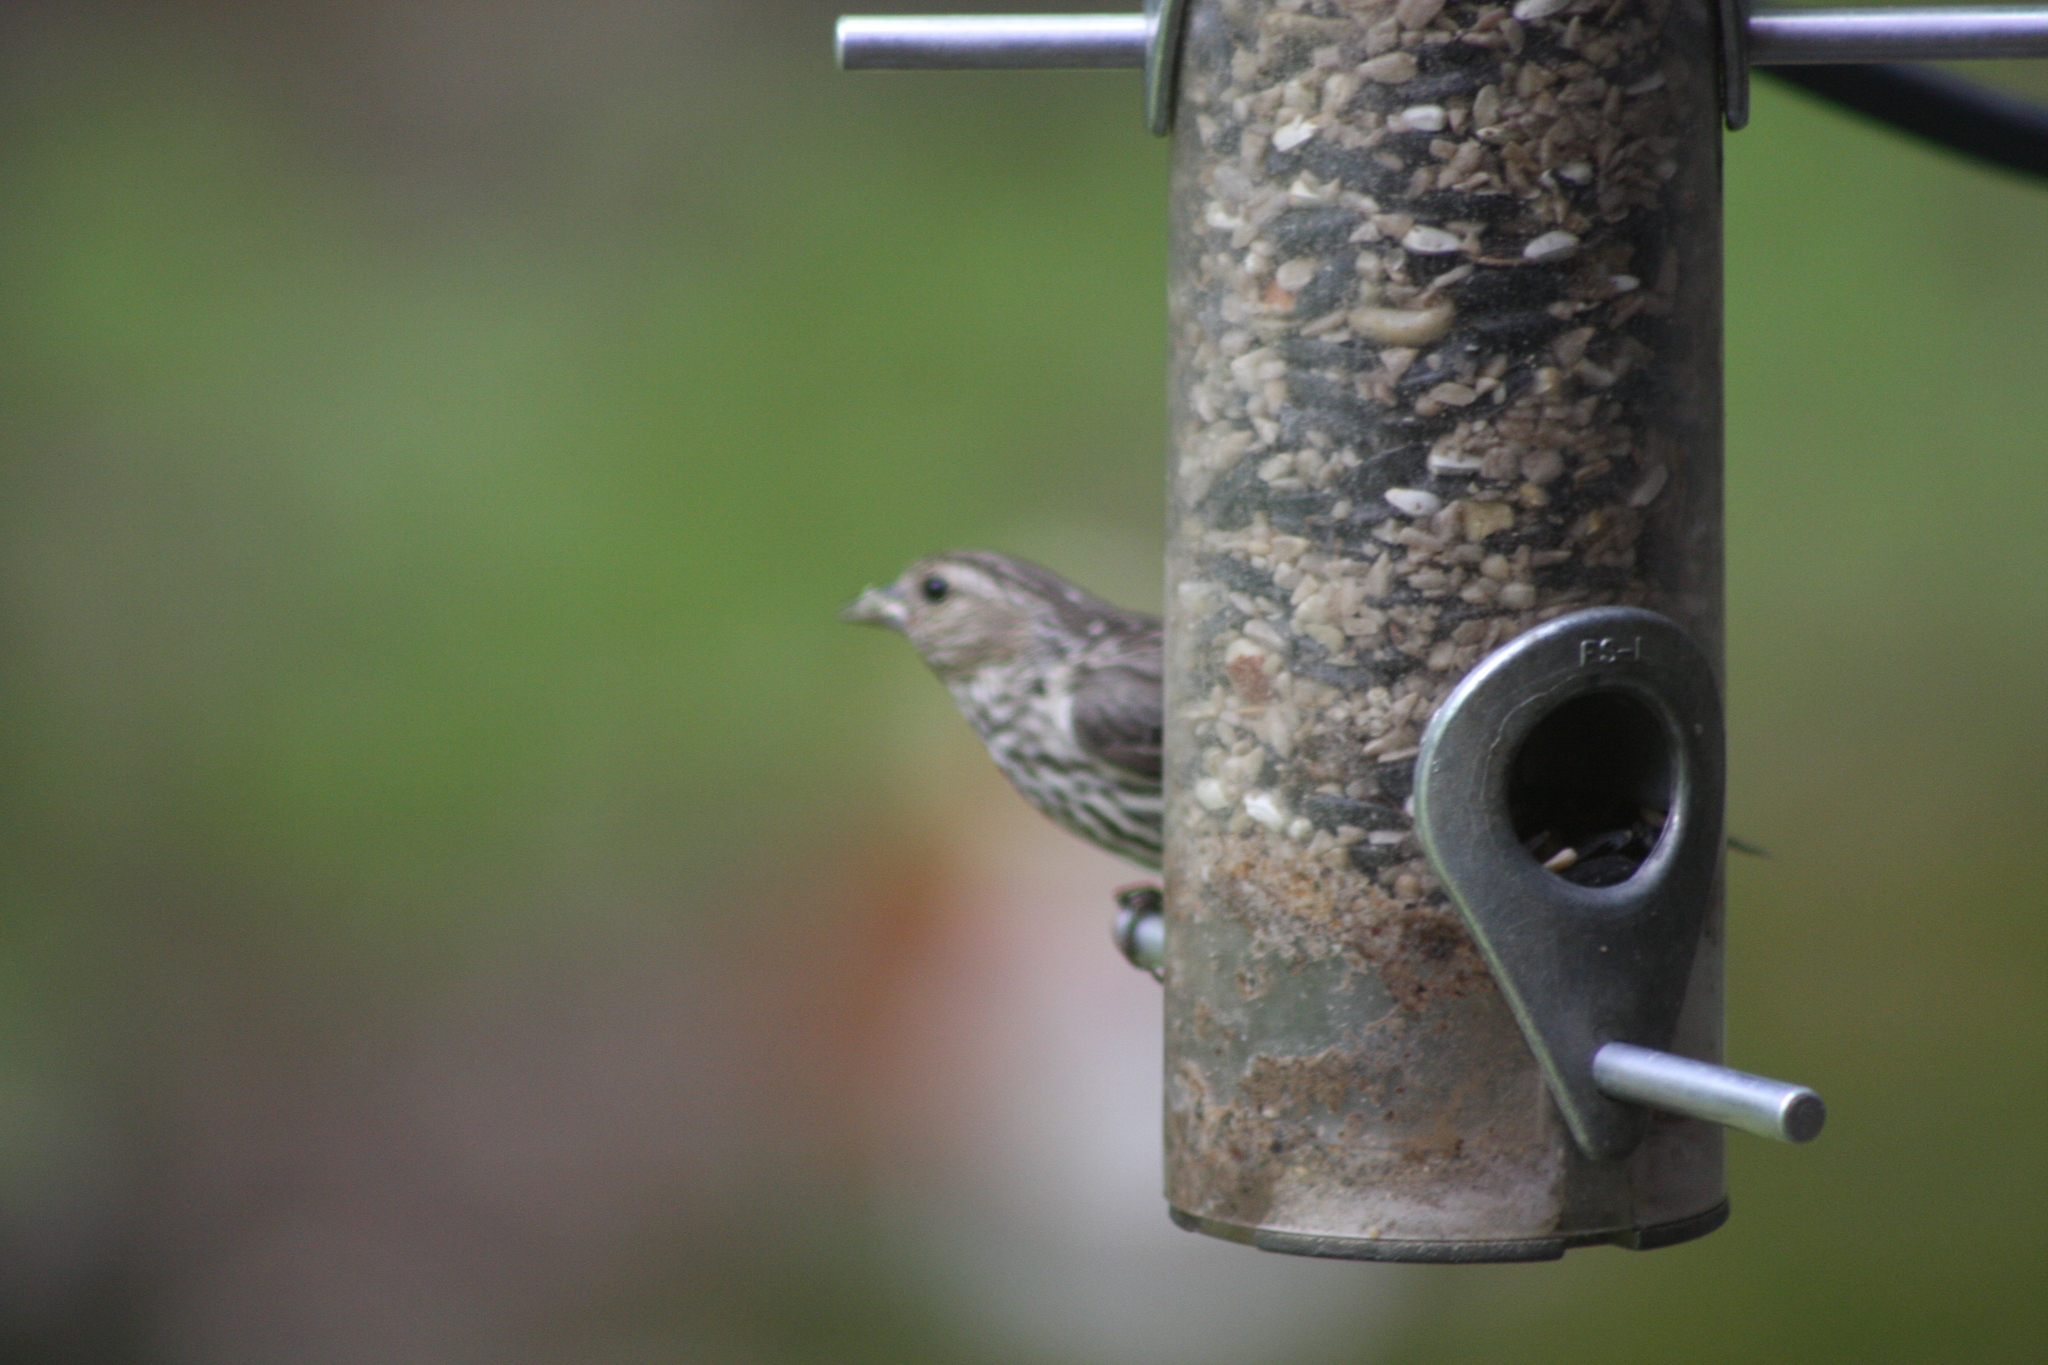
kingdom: Animalia
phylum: Chordata
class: Aves
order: Passeriformes
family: Fringillidae
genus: Spinus
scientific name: Spinus pinus
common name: Pine siskin
